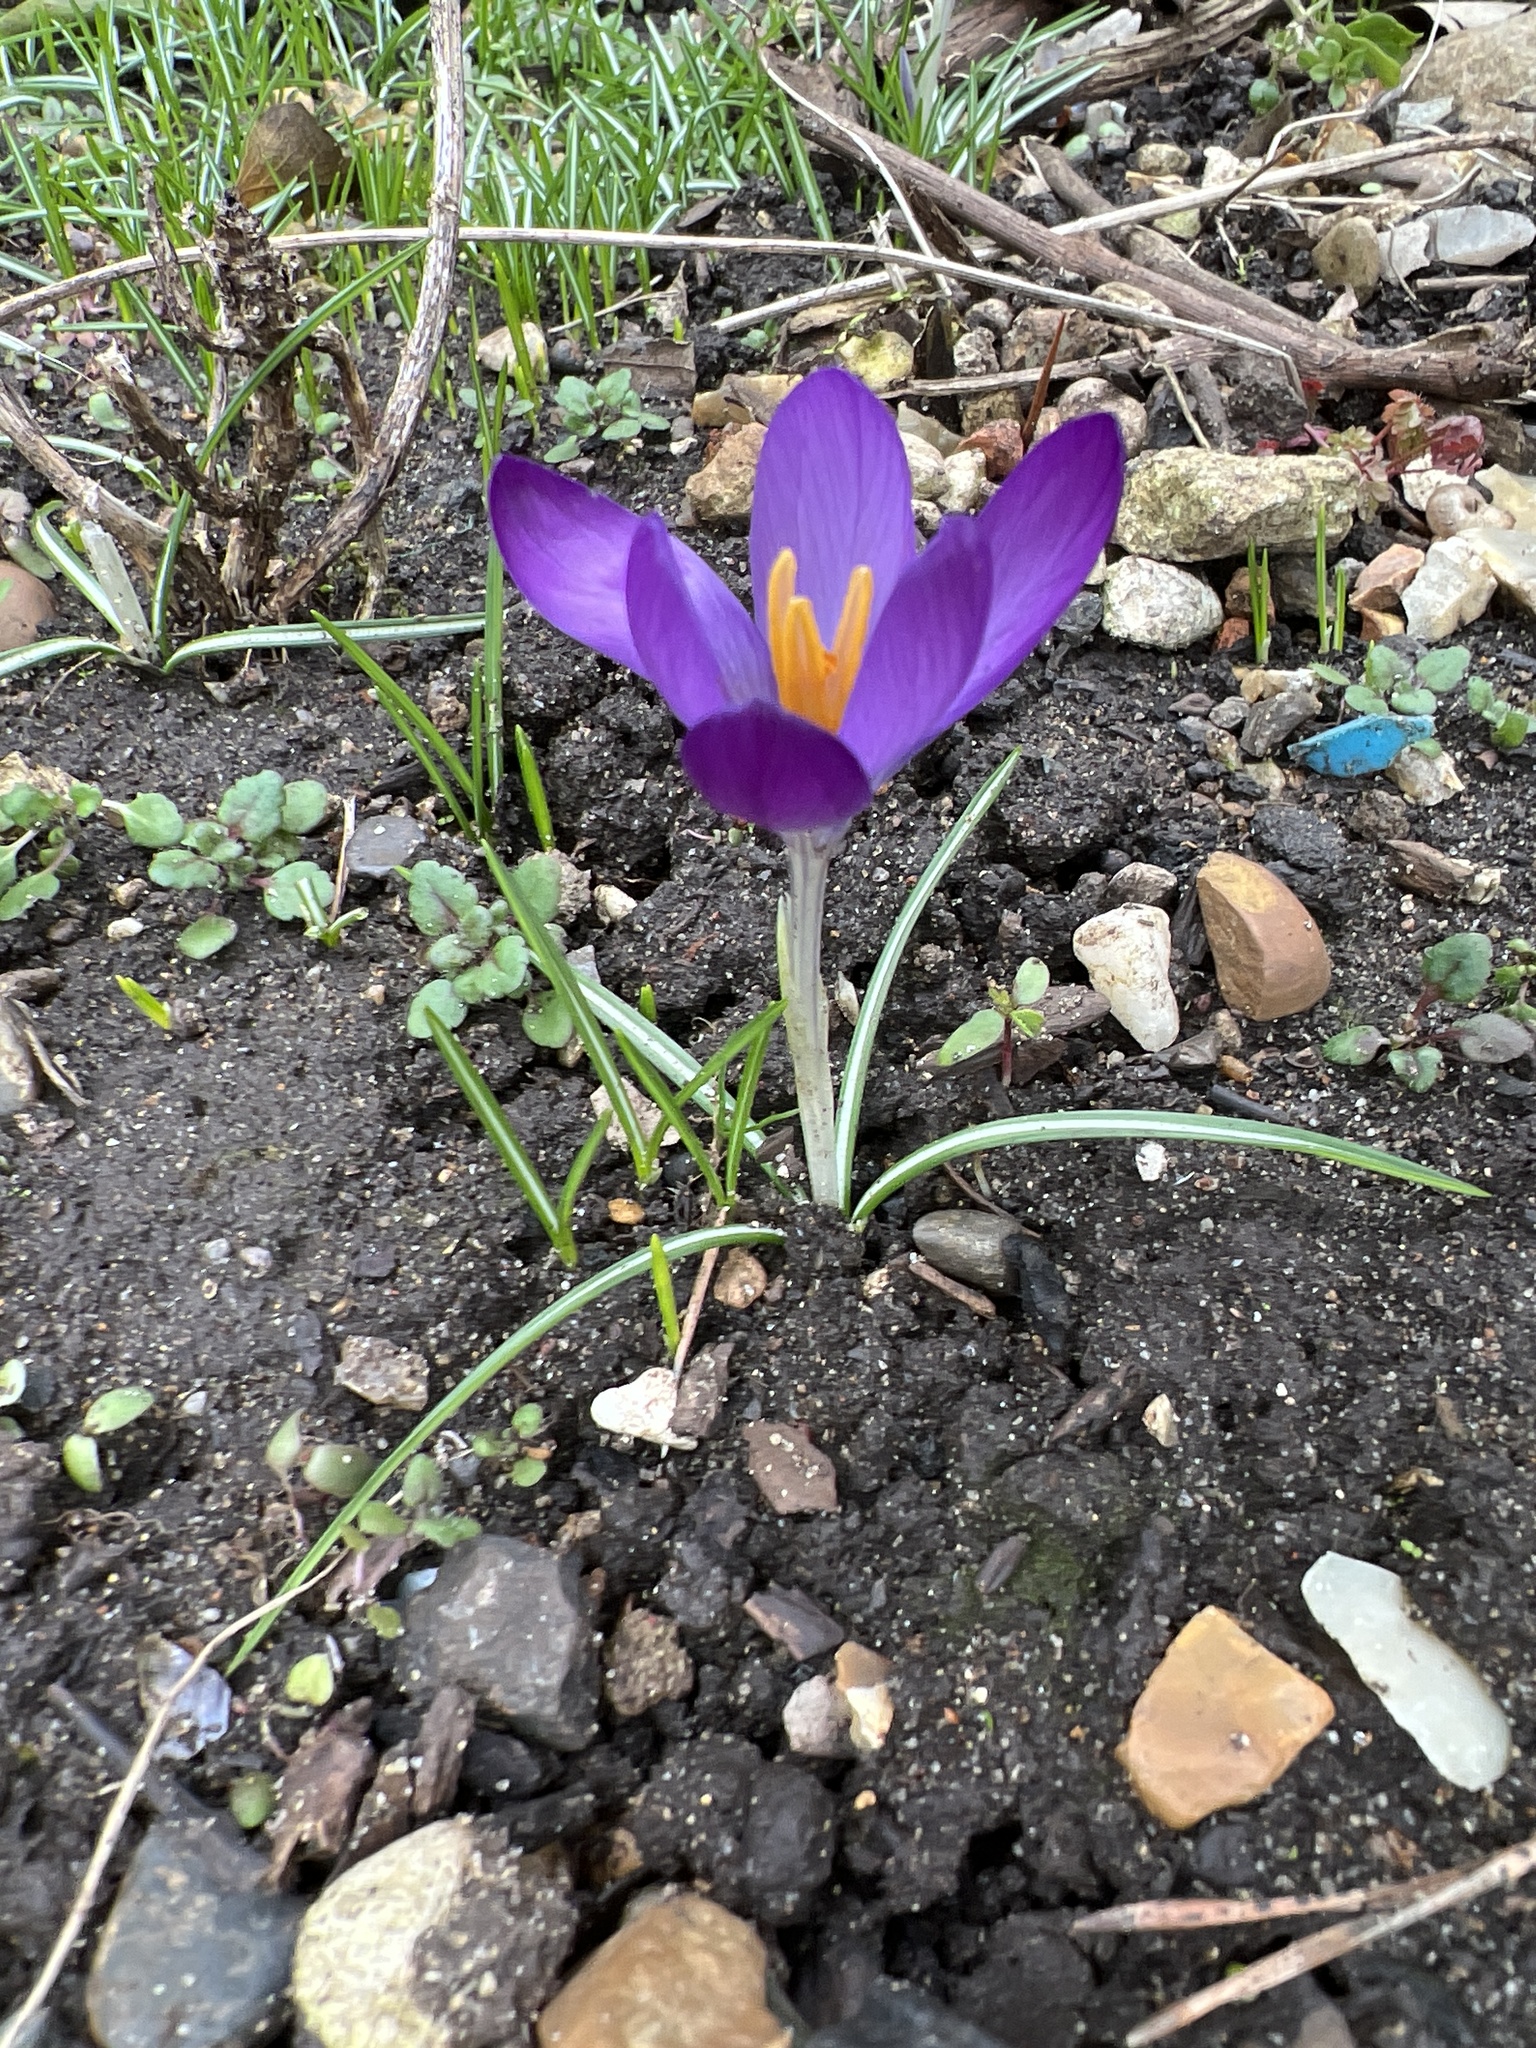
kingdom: Plantae
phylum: Tracheophyta
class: Liliopsida
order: Asparagales
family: Iridaceae
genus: Crocus
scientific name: Crocus tommasinianus
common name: Early crocus
